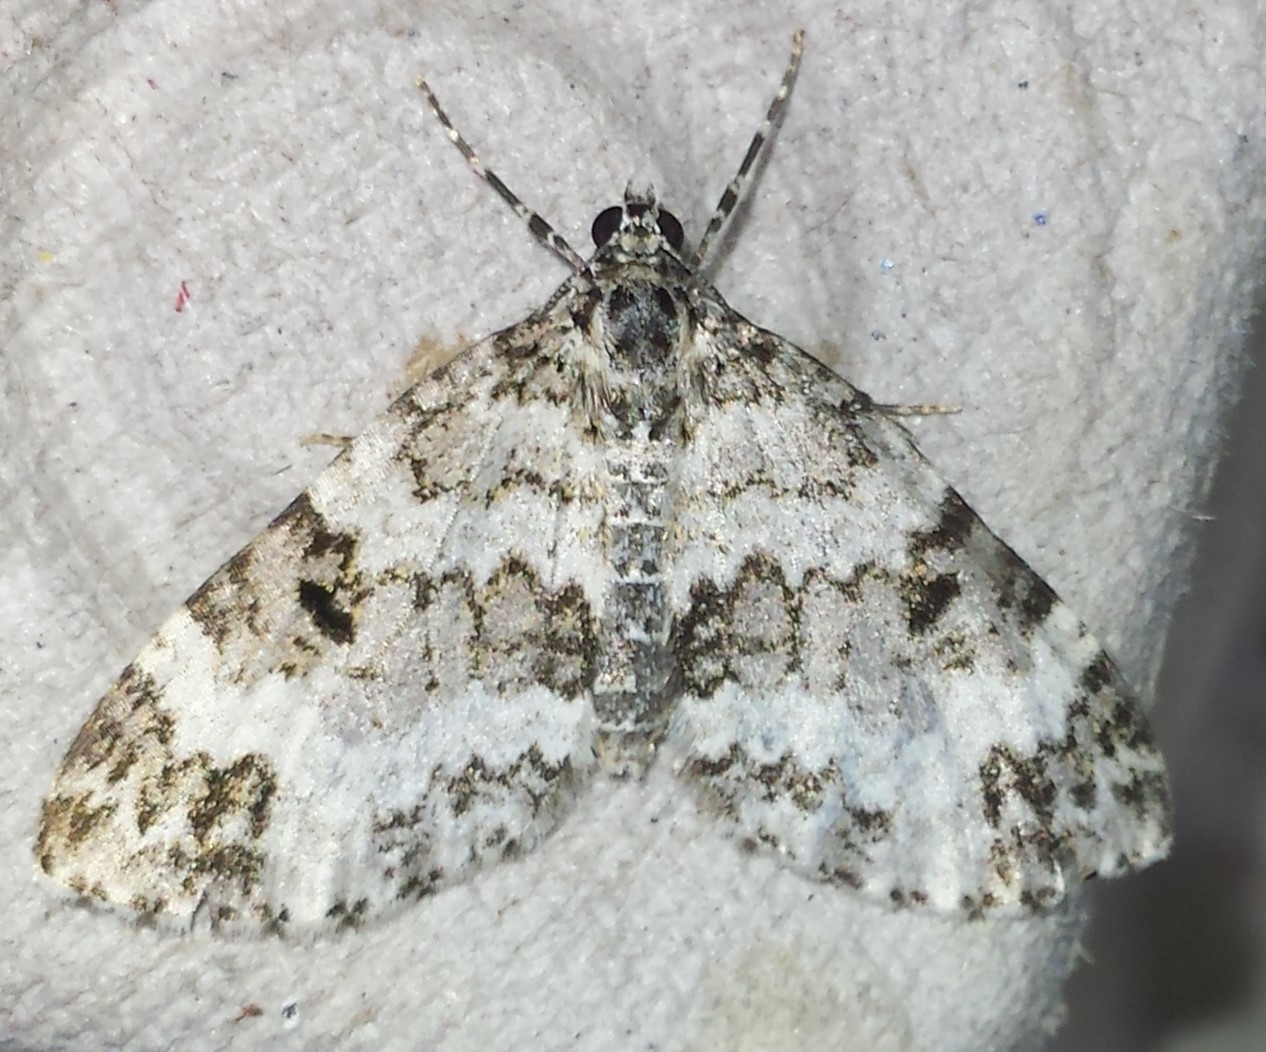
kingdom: Animalia
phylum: Arthropoda
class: Insecta
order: Lepidoptera
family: Geometridae
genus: Spargania
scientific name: Spargania magnoliata
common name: Double-banded carpet
